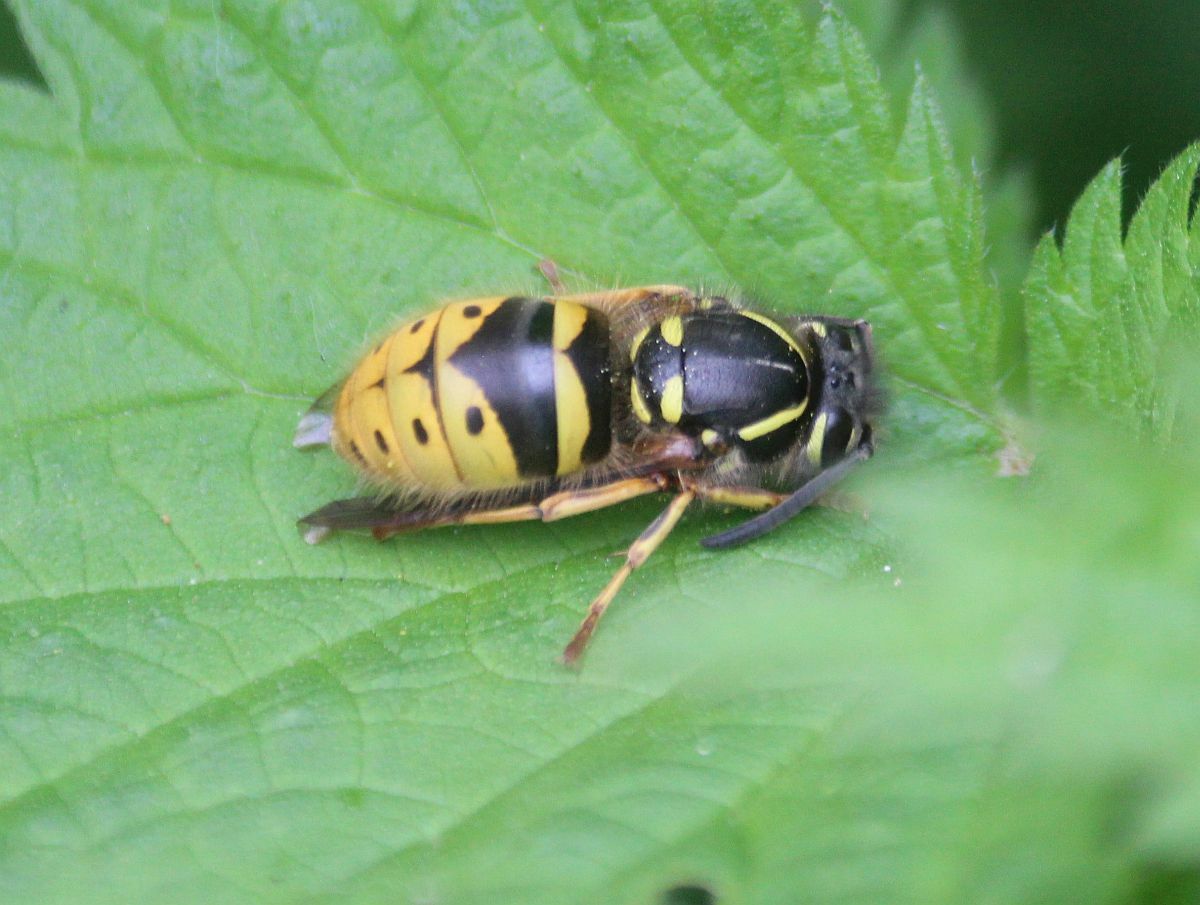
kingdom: Animalia
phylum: Arthropoda
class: Insecta
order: Hymenoptera
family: Vespidae
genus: Vespula
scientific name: Vespula vulgaris
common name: Common wasp
